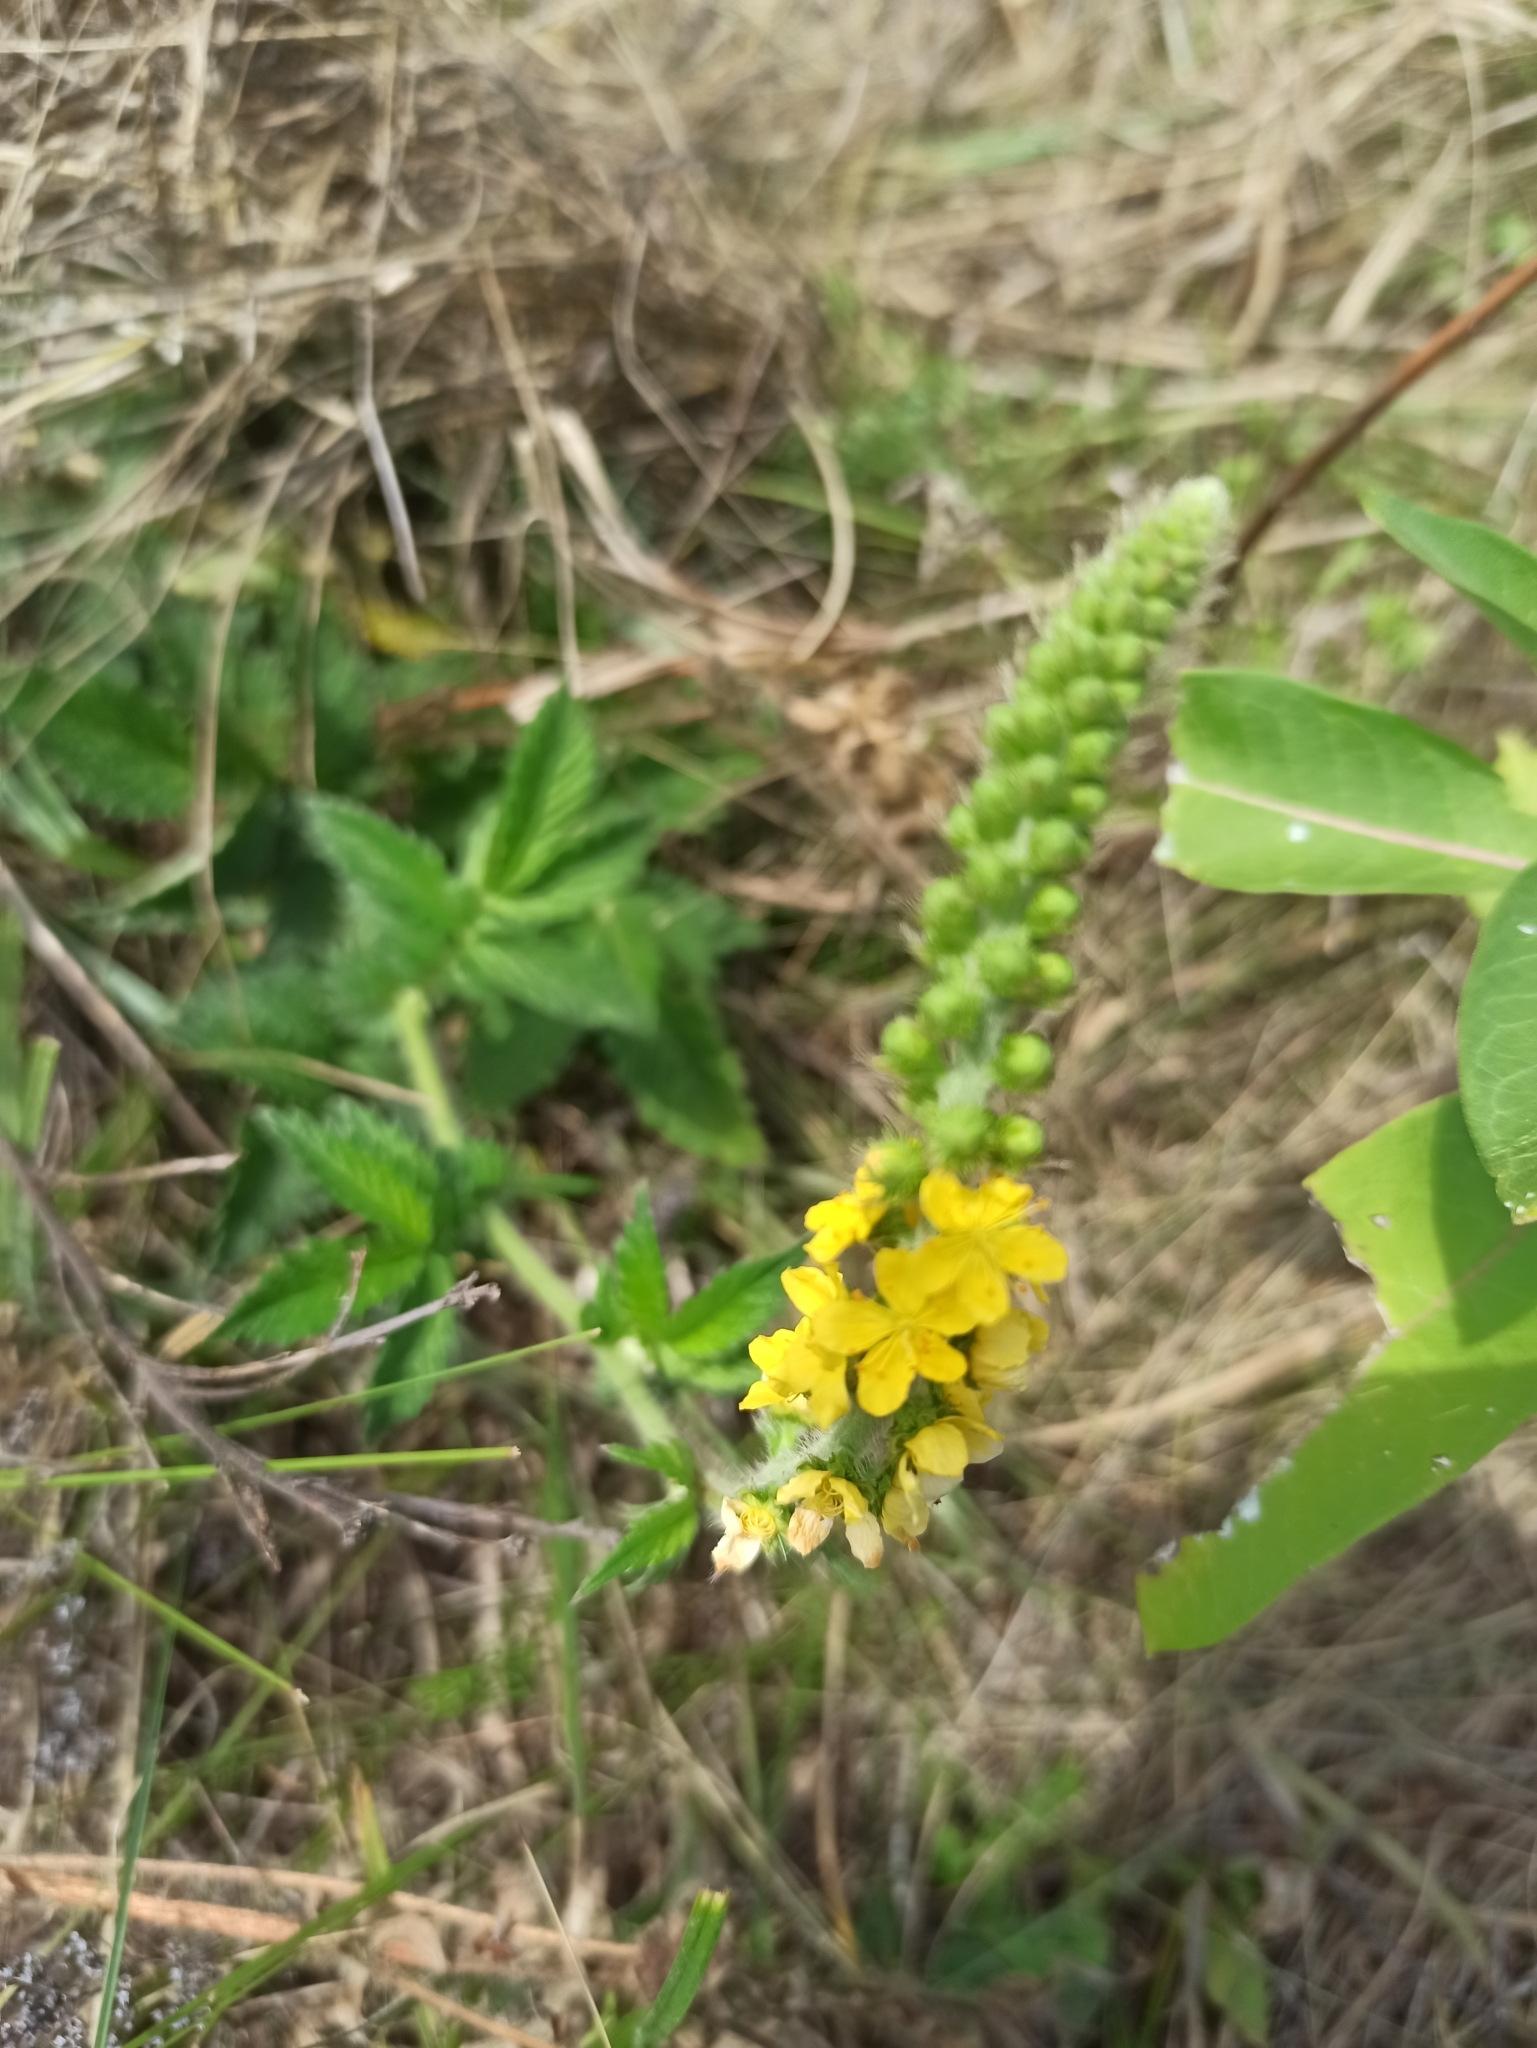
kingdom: Plantae
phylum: Tracheophyta
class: Magnoliopsida
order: Rosales
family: Rosaceae
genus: Agrimonia
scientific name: Agrimonia eupatoria
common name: Agrimony
